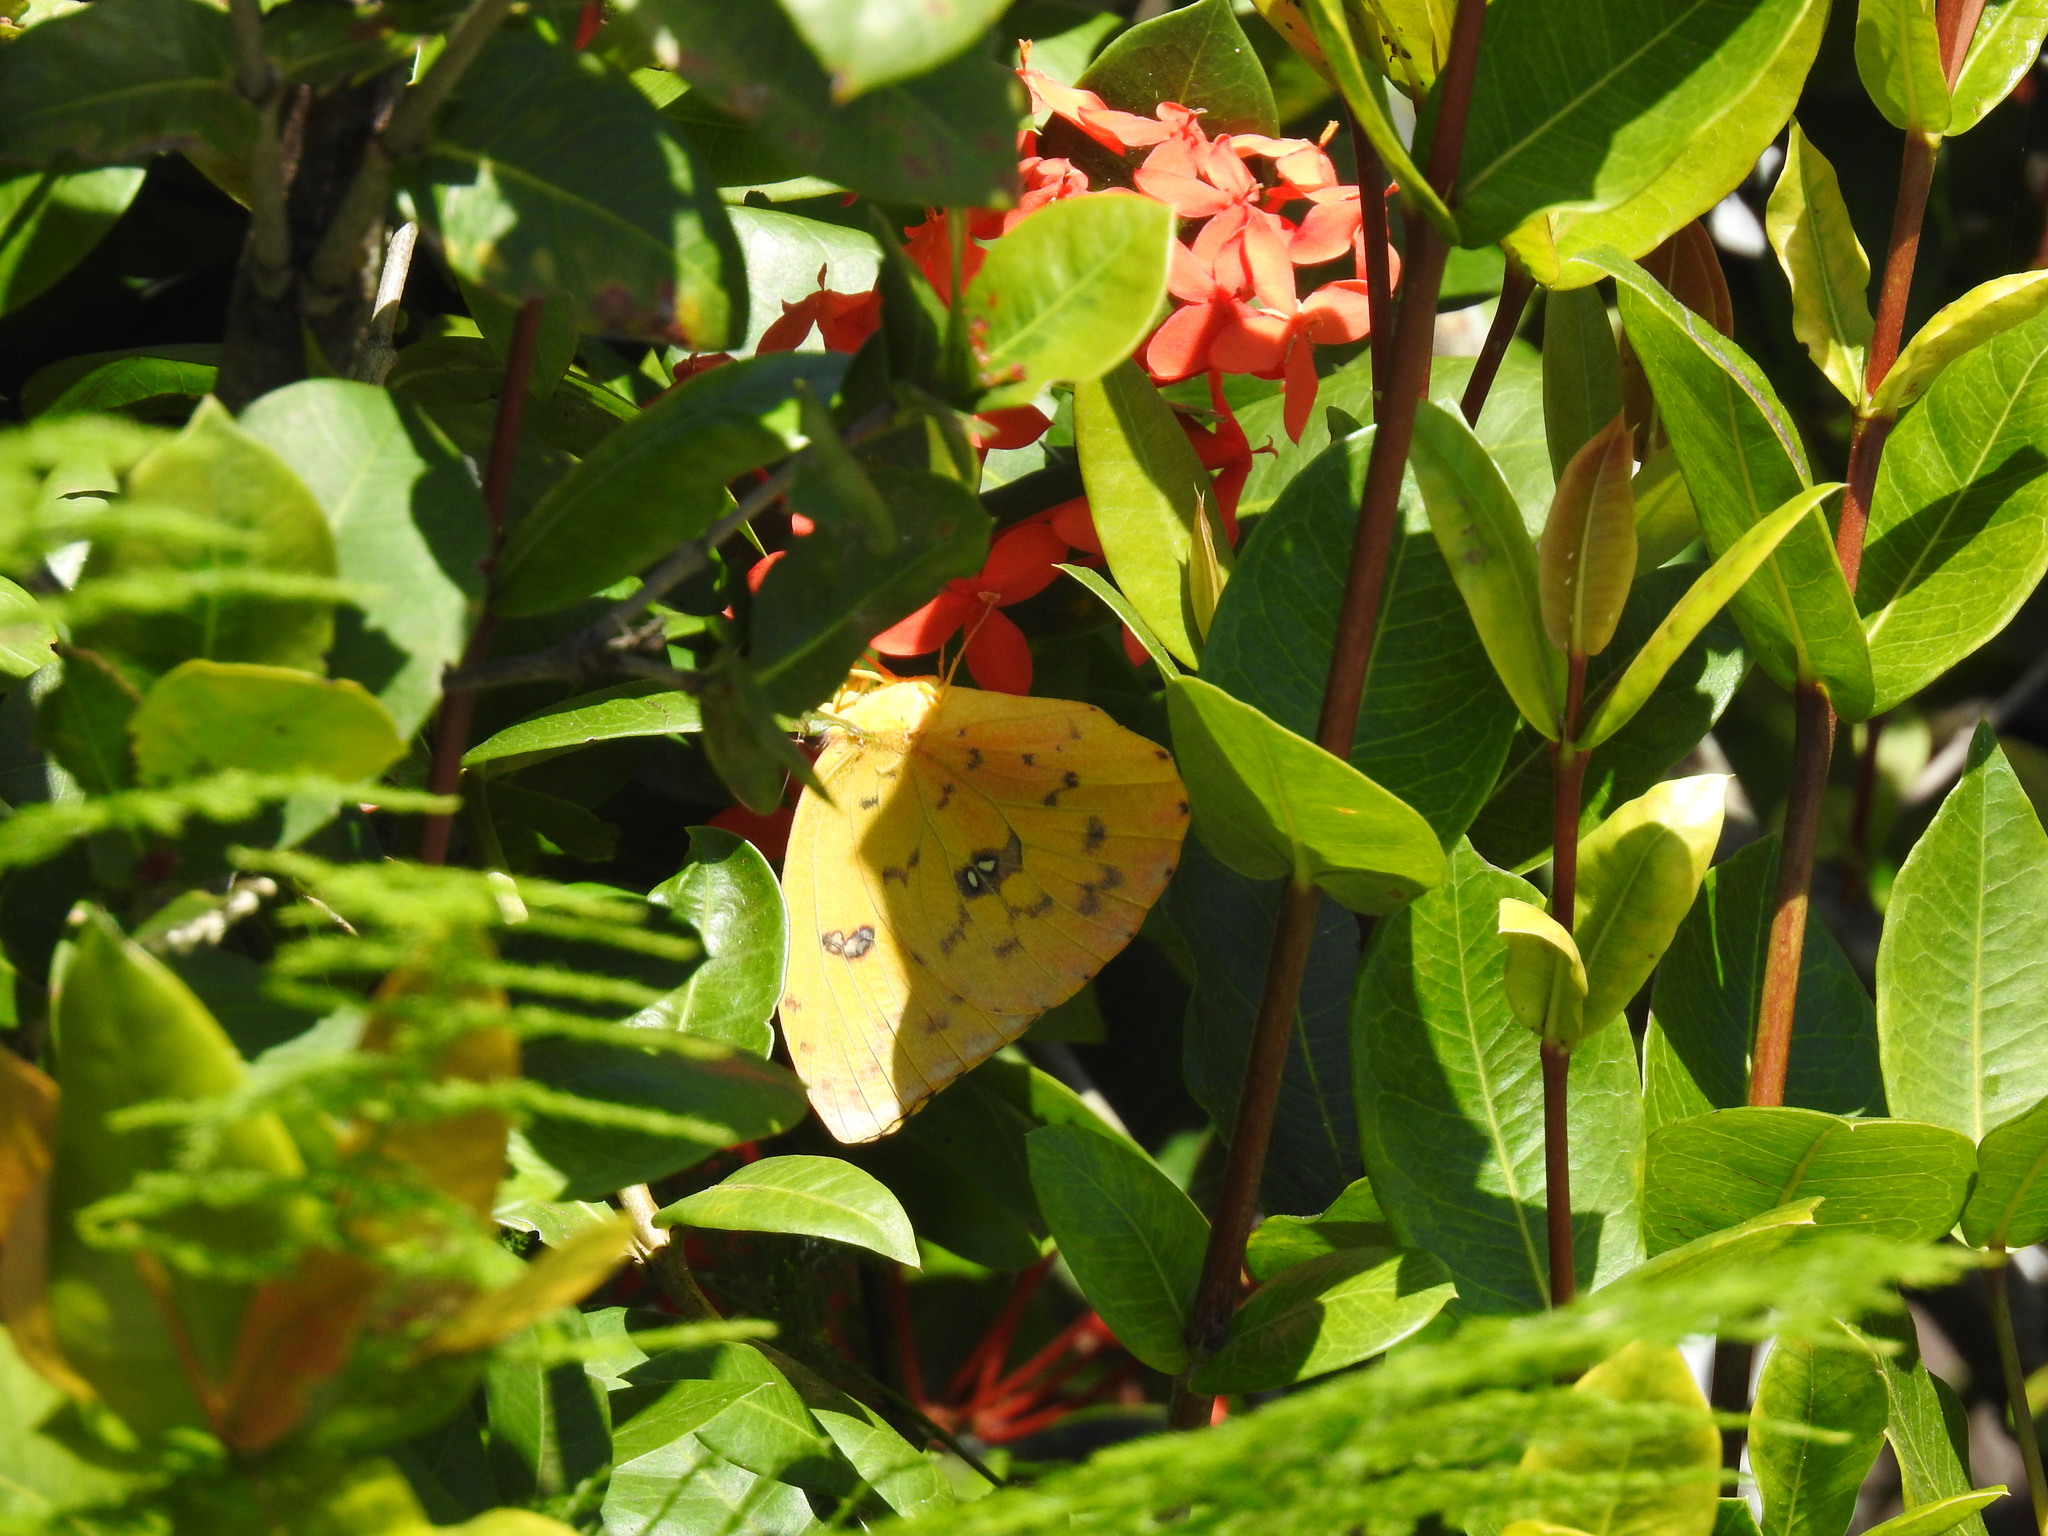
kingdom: Animalia
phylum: Arthropoda
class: Insecta
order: Lepidoptera
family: Pieridae
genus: Phoebis
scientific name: Phoebis philea
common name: Orange-barred giant sulphur
